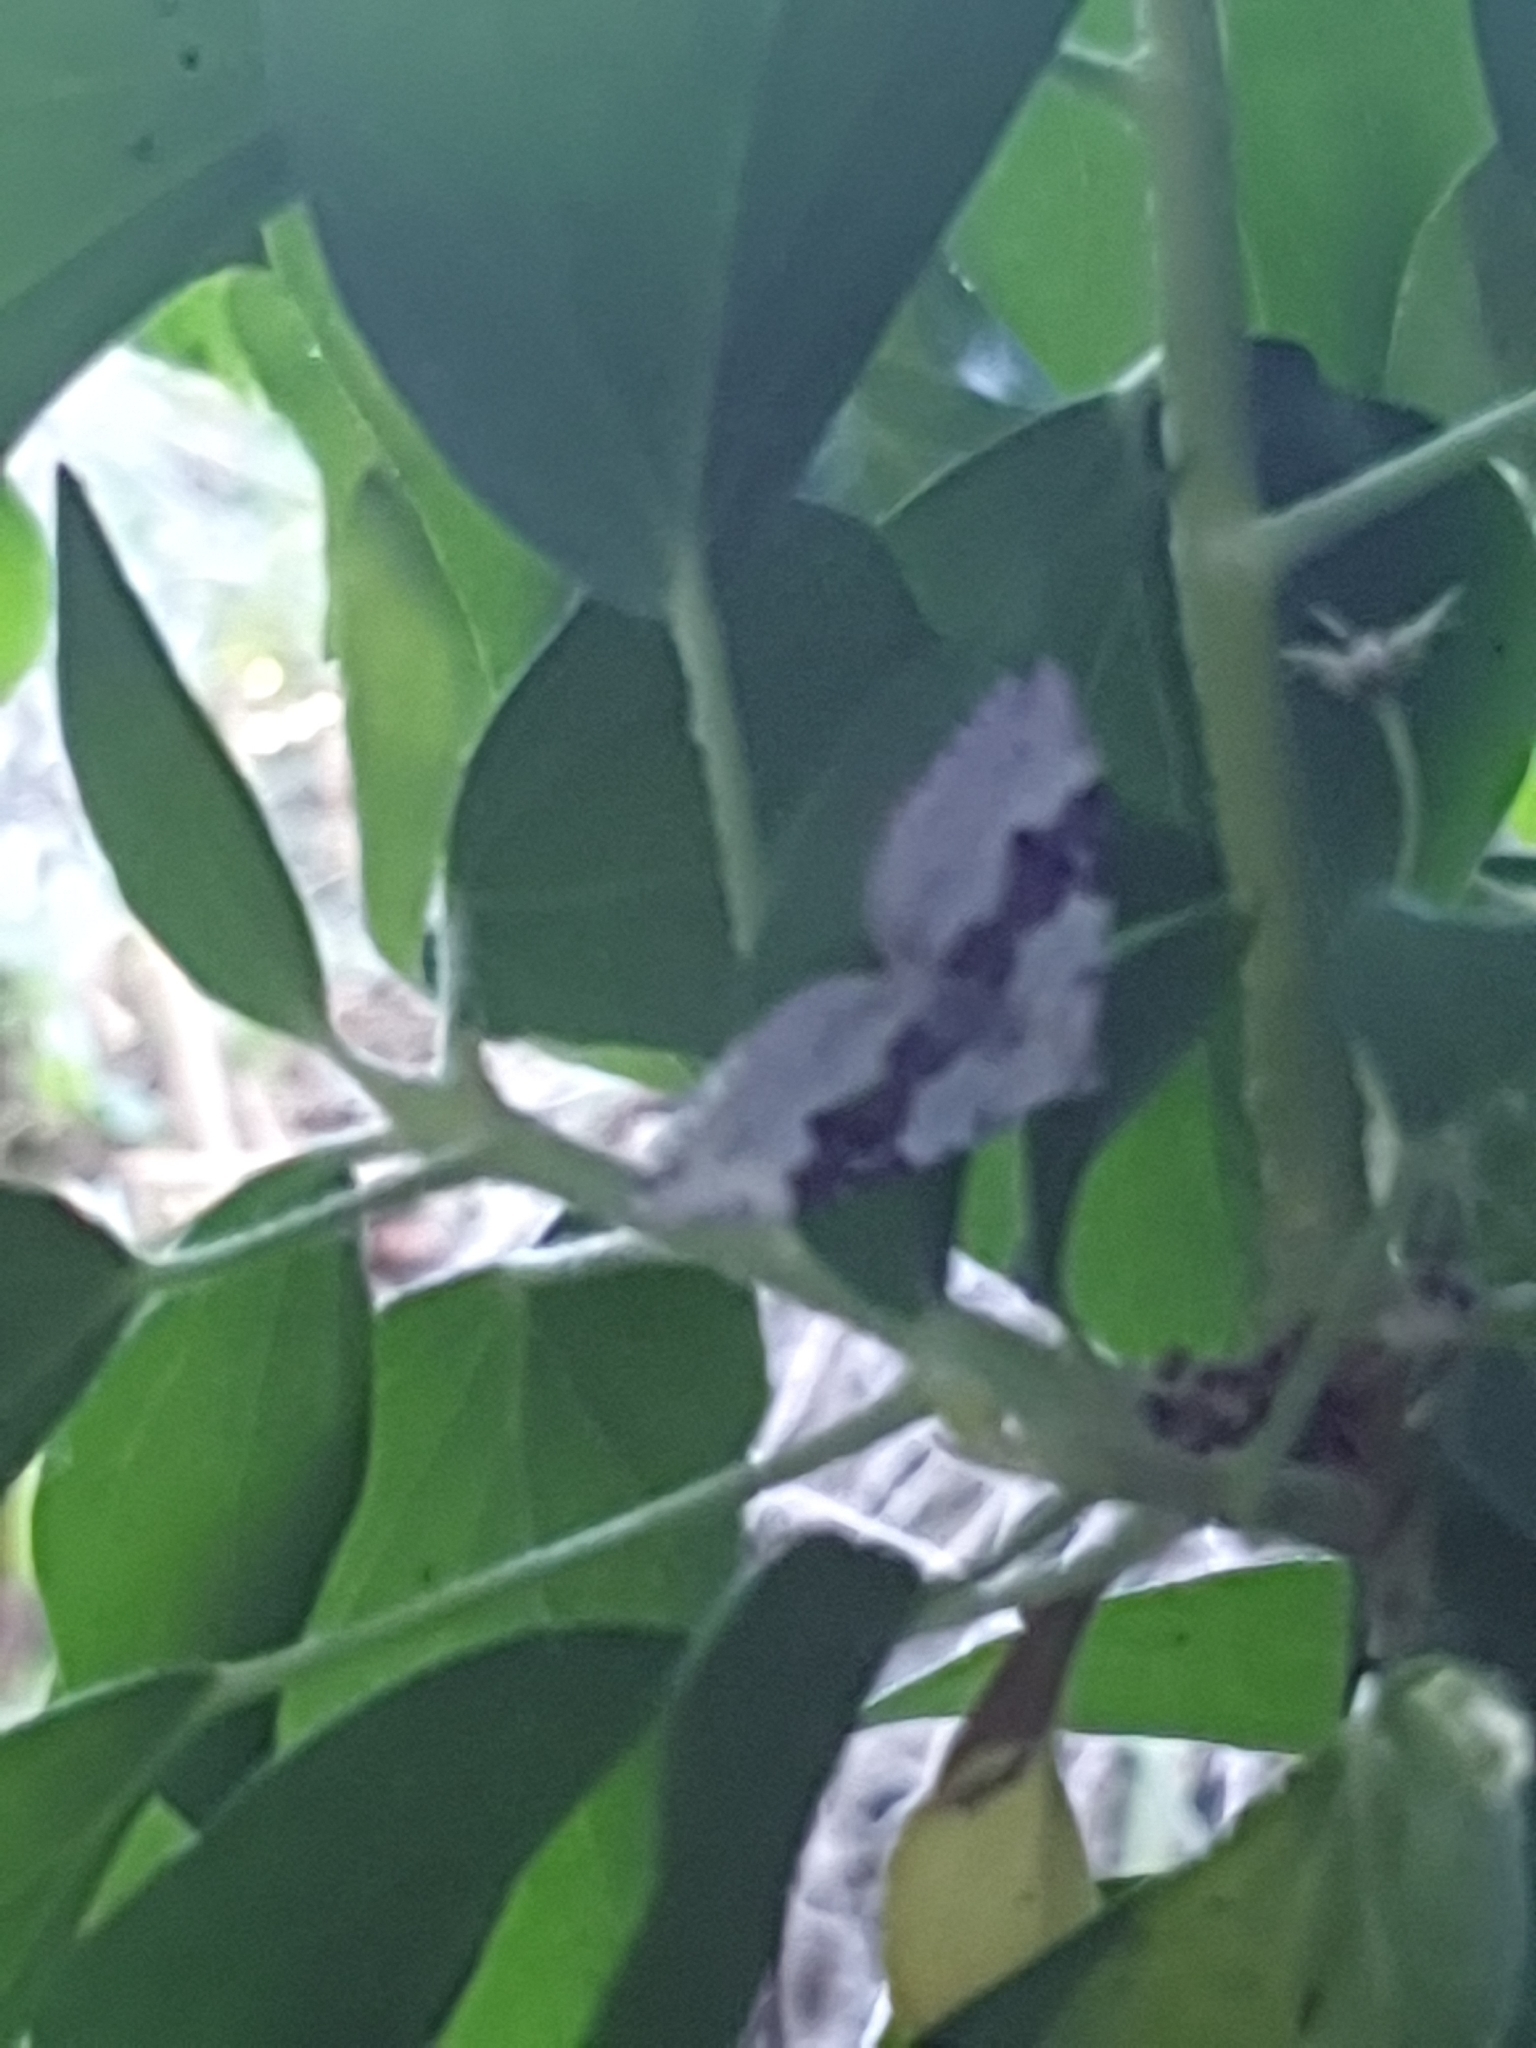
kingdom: Animalia
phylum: Arthropoda
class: Insecta
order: Lepidoptera
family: Geometridae
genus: Xanthorhoe
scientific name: Xanthorhoe montanata
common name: Silver-ground carpet
